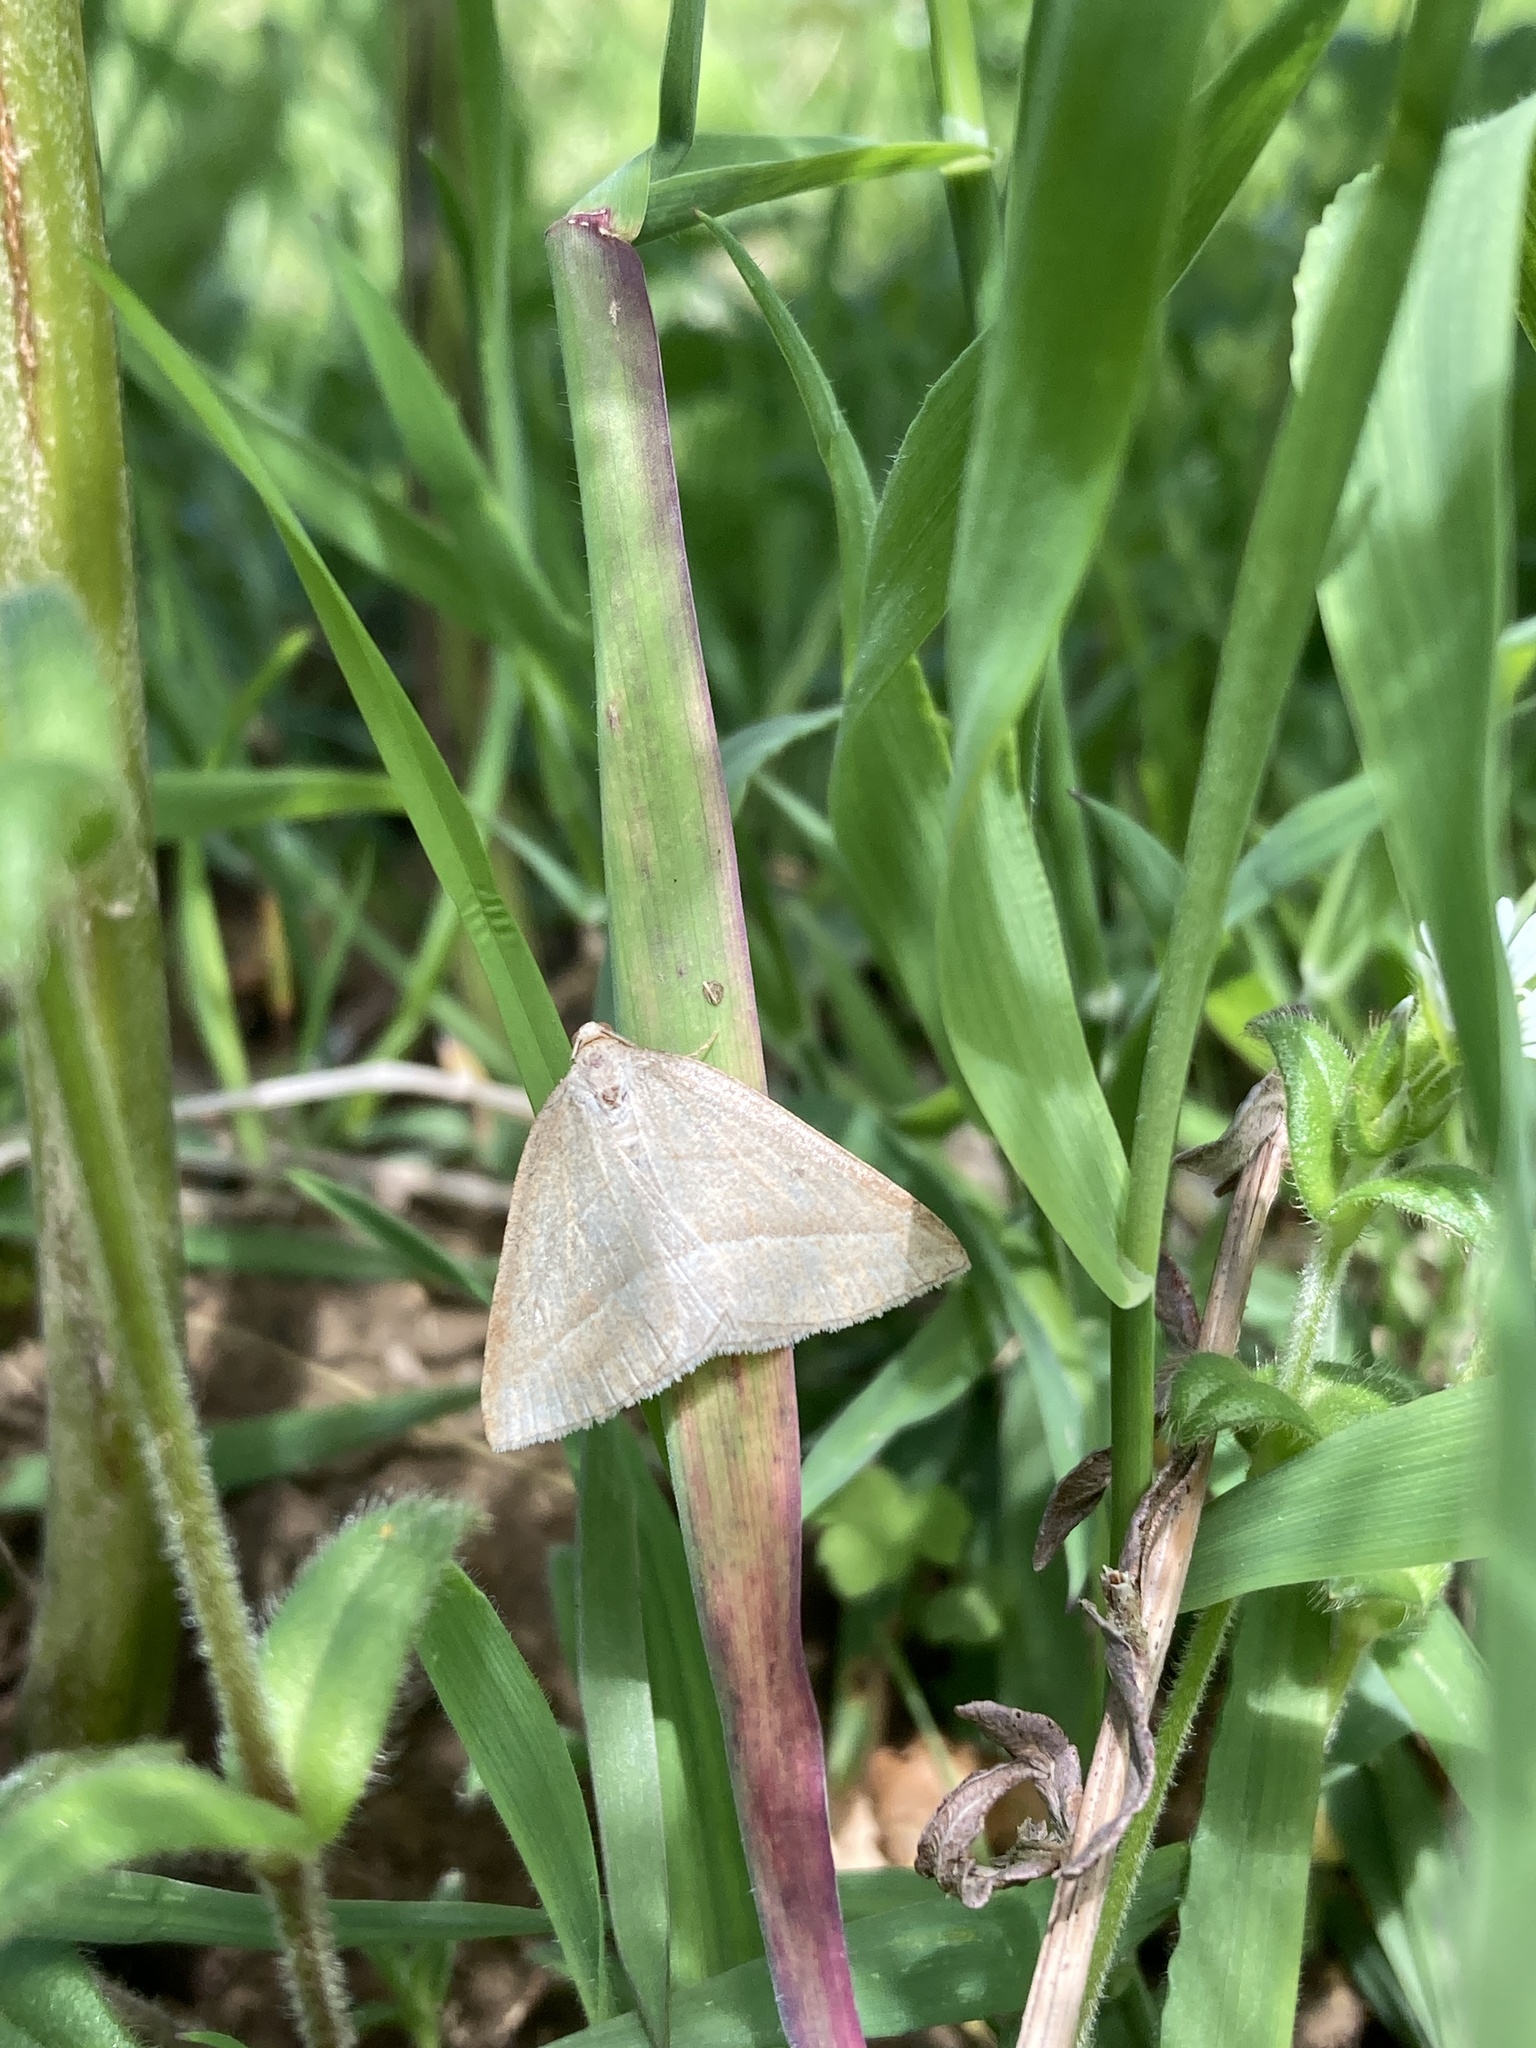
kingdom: Animalia
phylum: Arthropoda
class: Insecta
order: Lepidoptera
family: Pterophoridae
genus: Pterophorus
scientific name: Pterophorus Petrophora chlorosata
